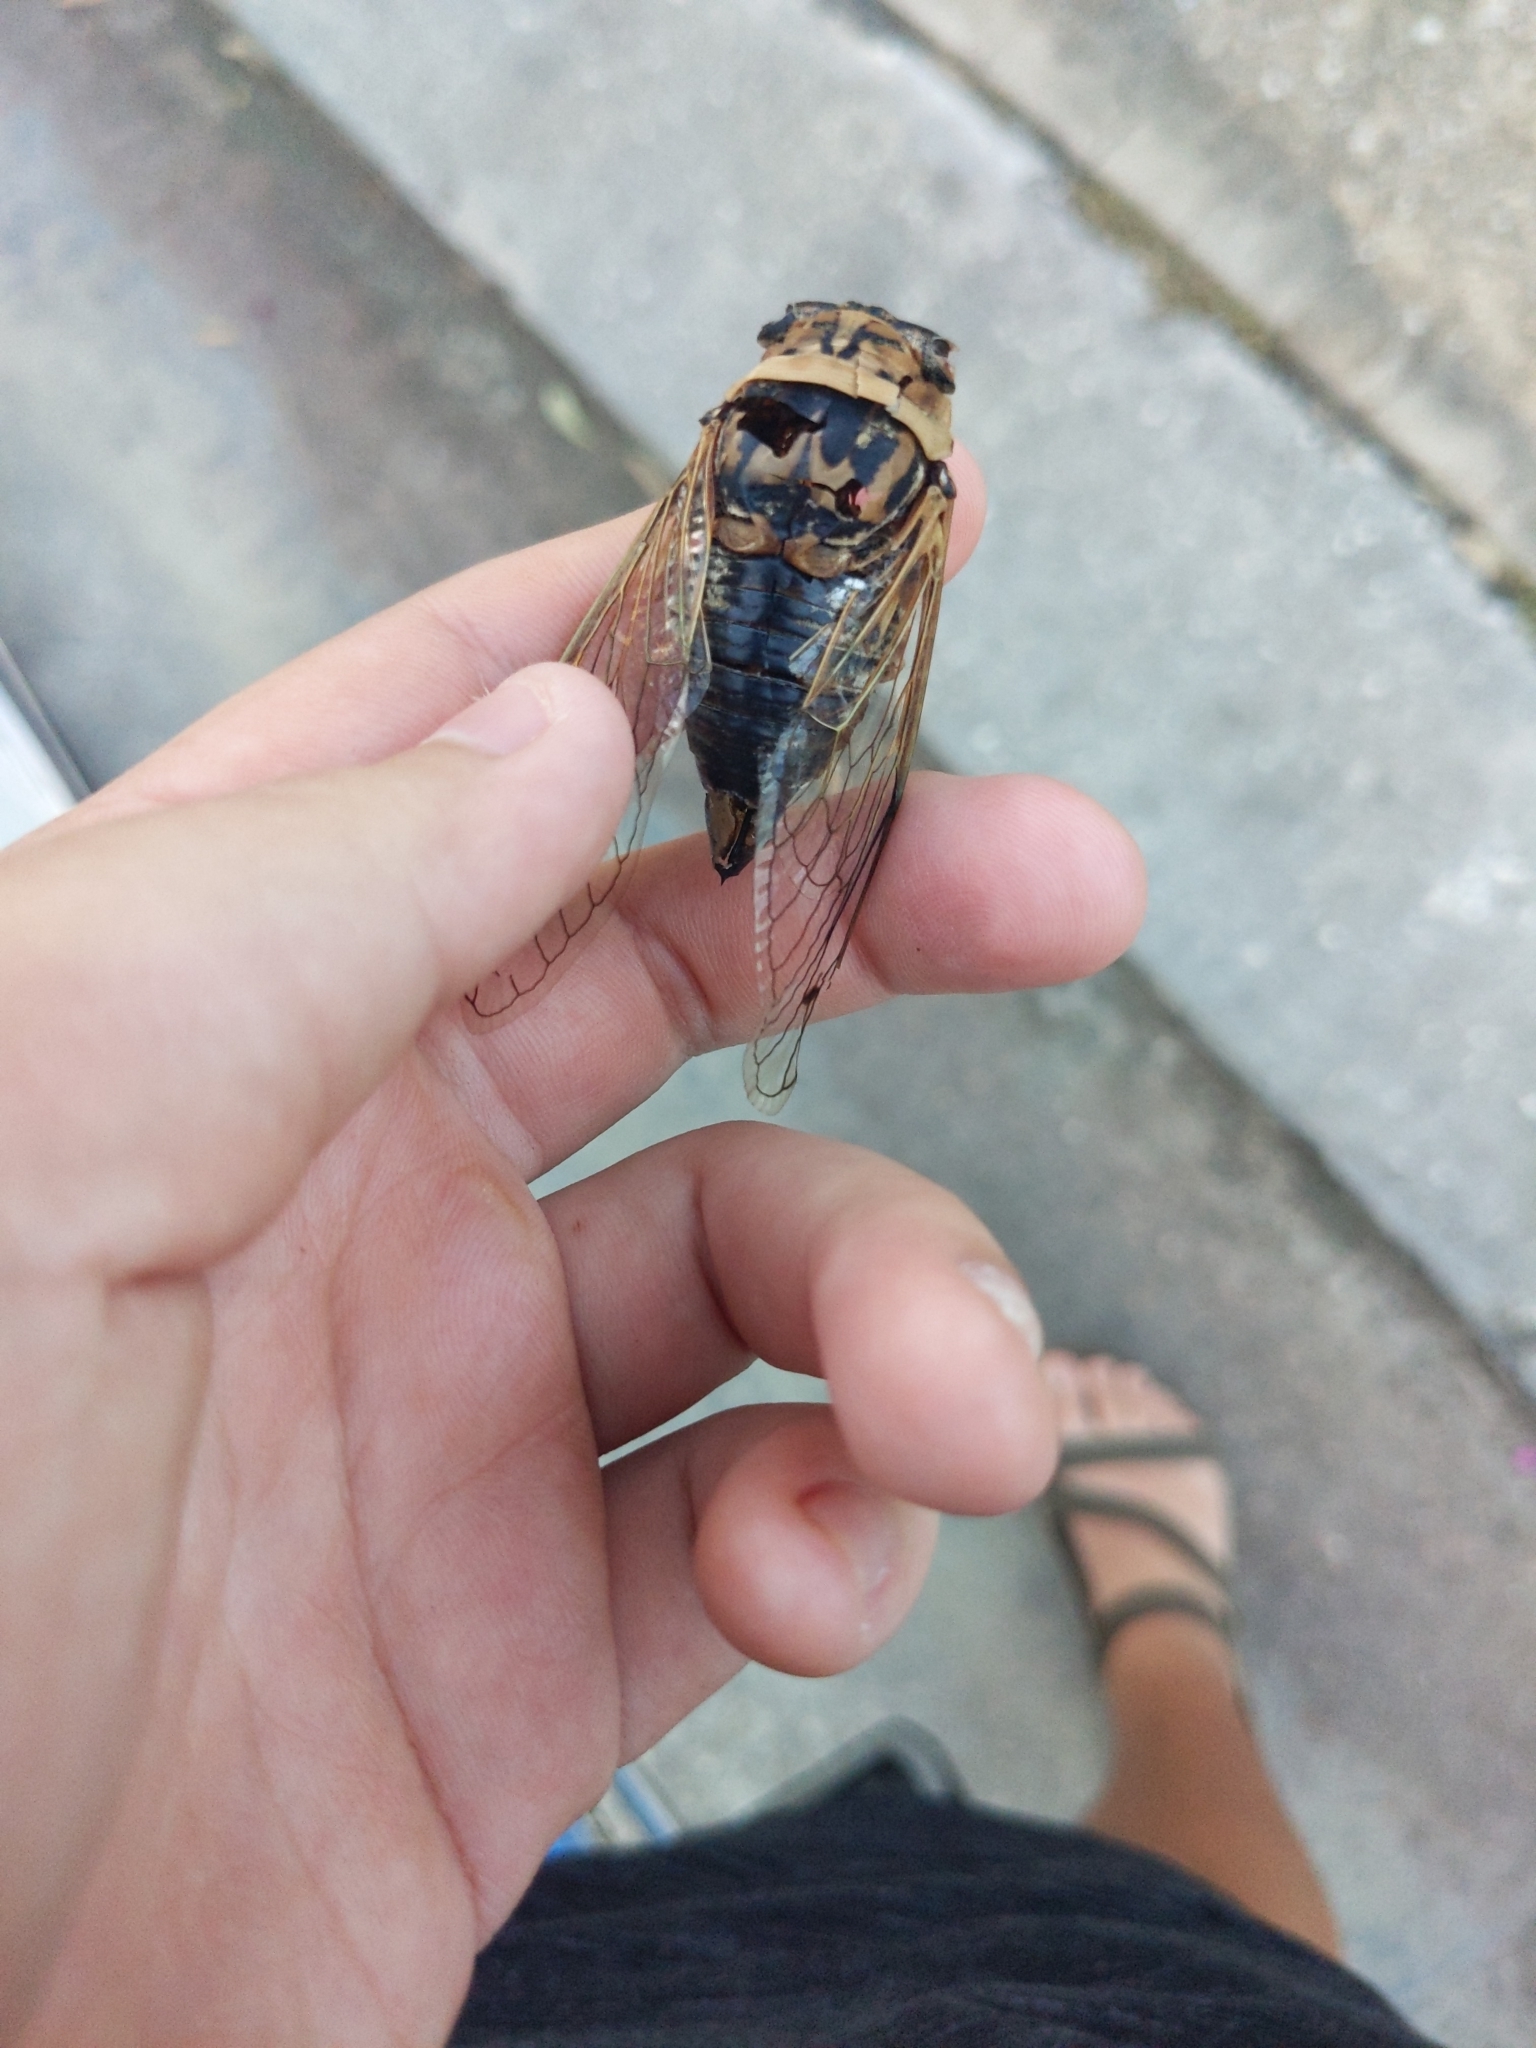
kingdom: Animalia
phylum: Arthropoda
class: Insecta
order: Hemiptera
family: Cicadidae
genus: Megatibicen
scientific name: Megatibicen resh
